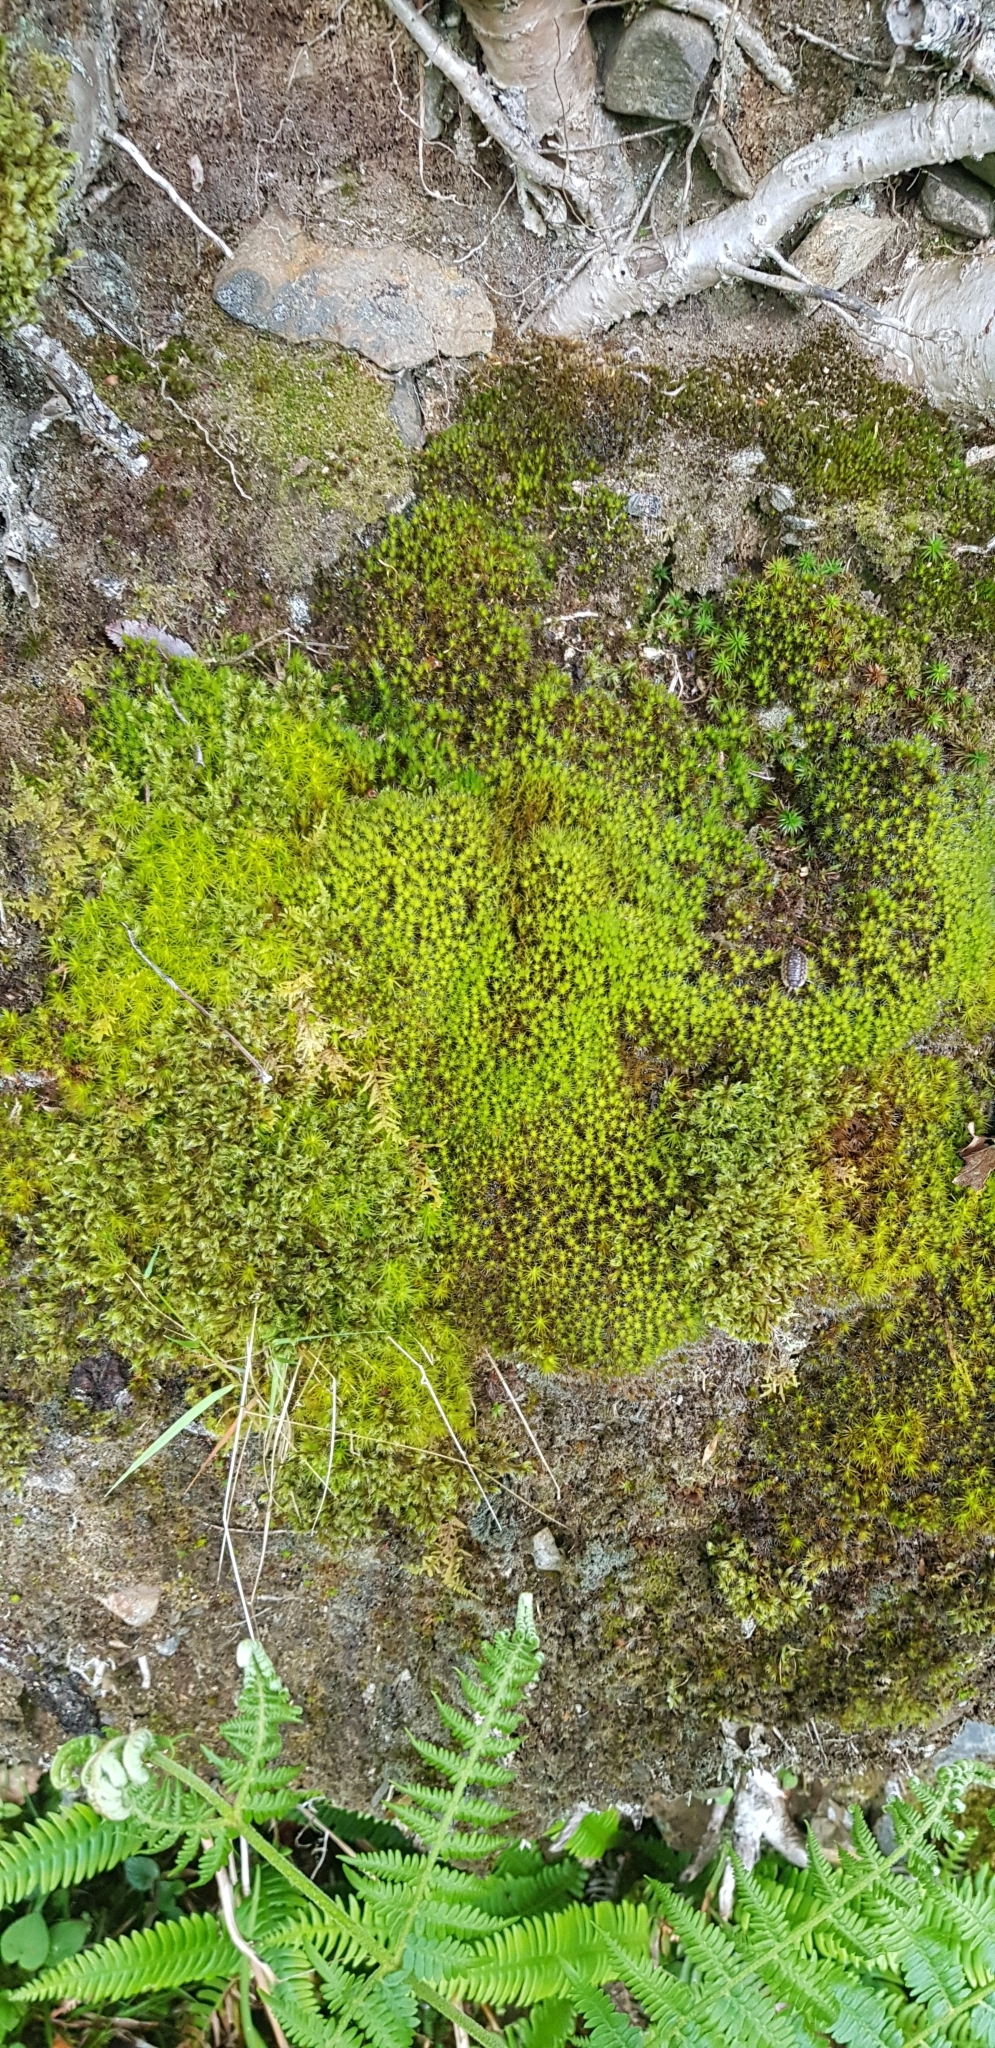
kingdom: Plantae
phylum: Bryophyta
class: Bryopsida
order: Dicranales
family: Leucobryaceae
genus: Campylopus
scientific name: Campylopus introflexus
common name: Heath star moss
